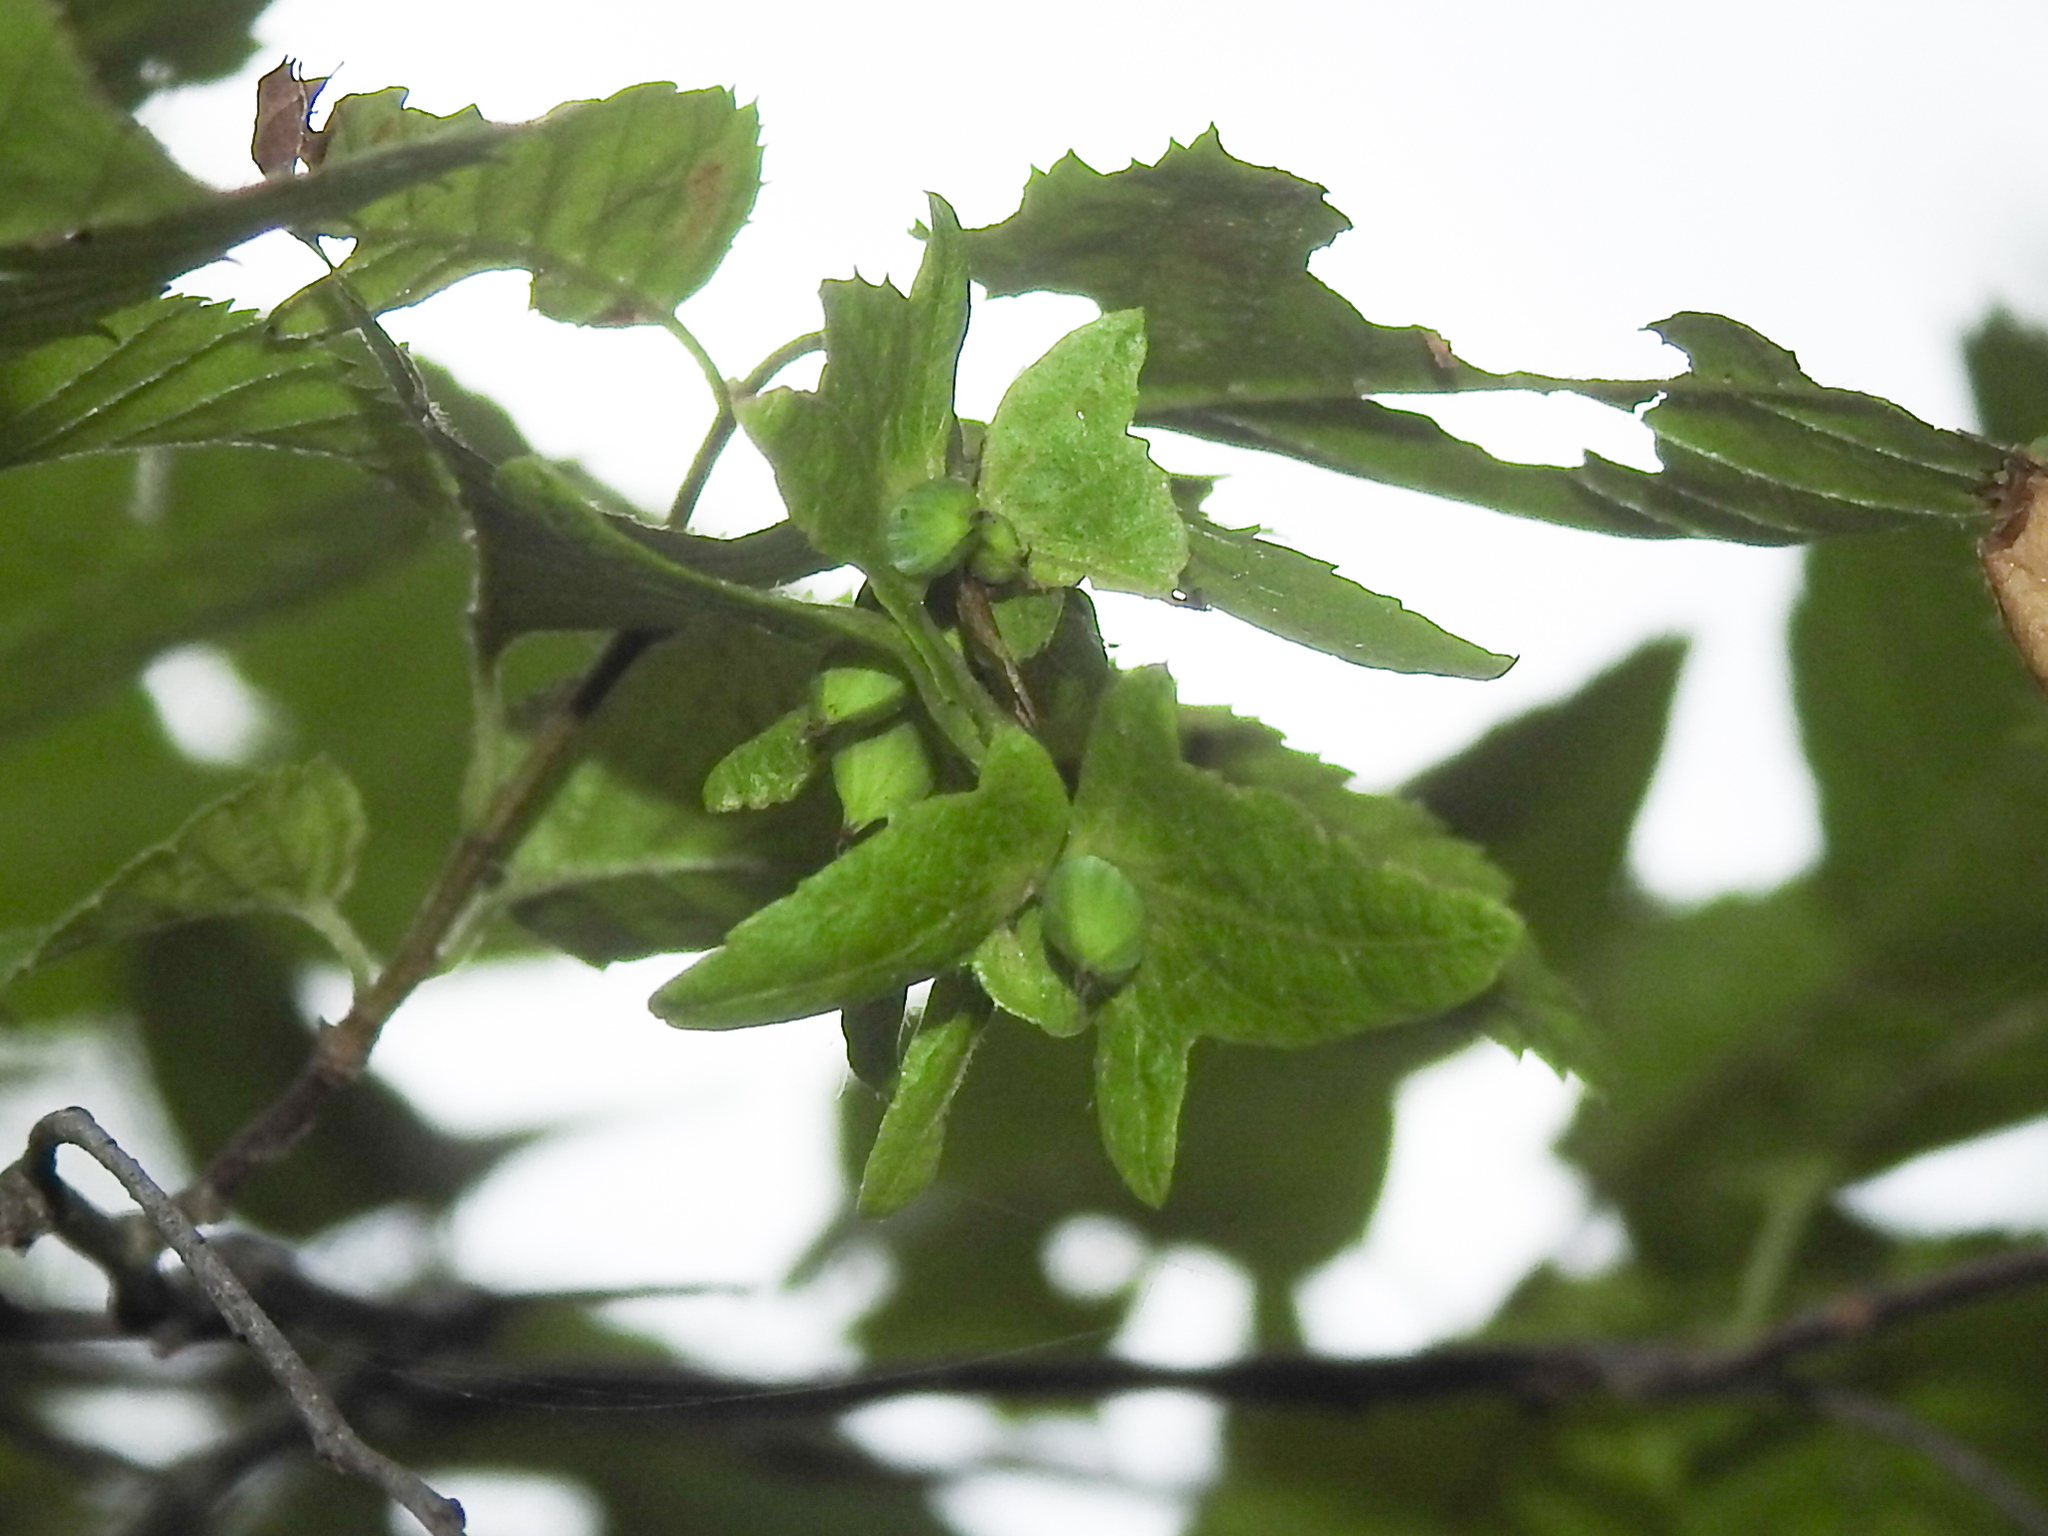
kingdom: Plantae
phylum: Tracheophyta
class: Magnoliopsida
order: Fagales
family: Betulaceae
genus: Carpinus
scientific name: Carpinus caroliniana
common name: American hornbeam
